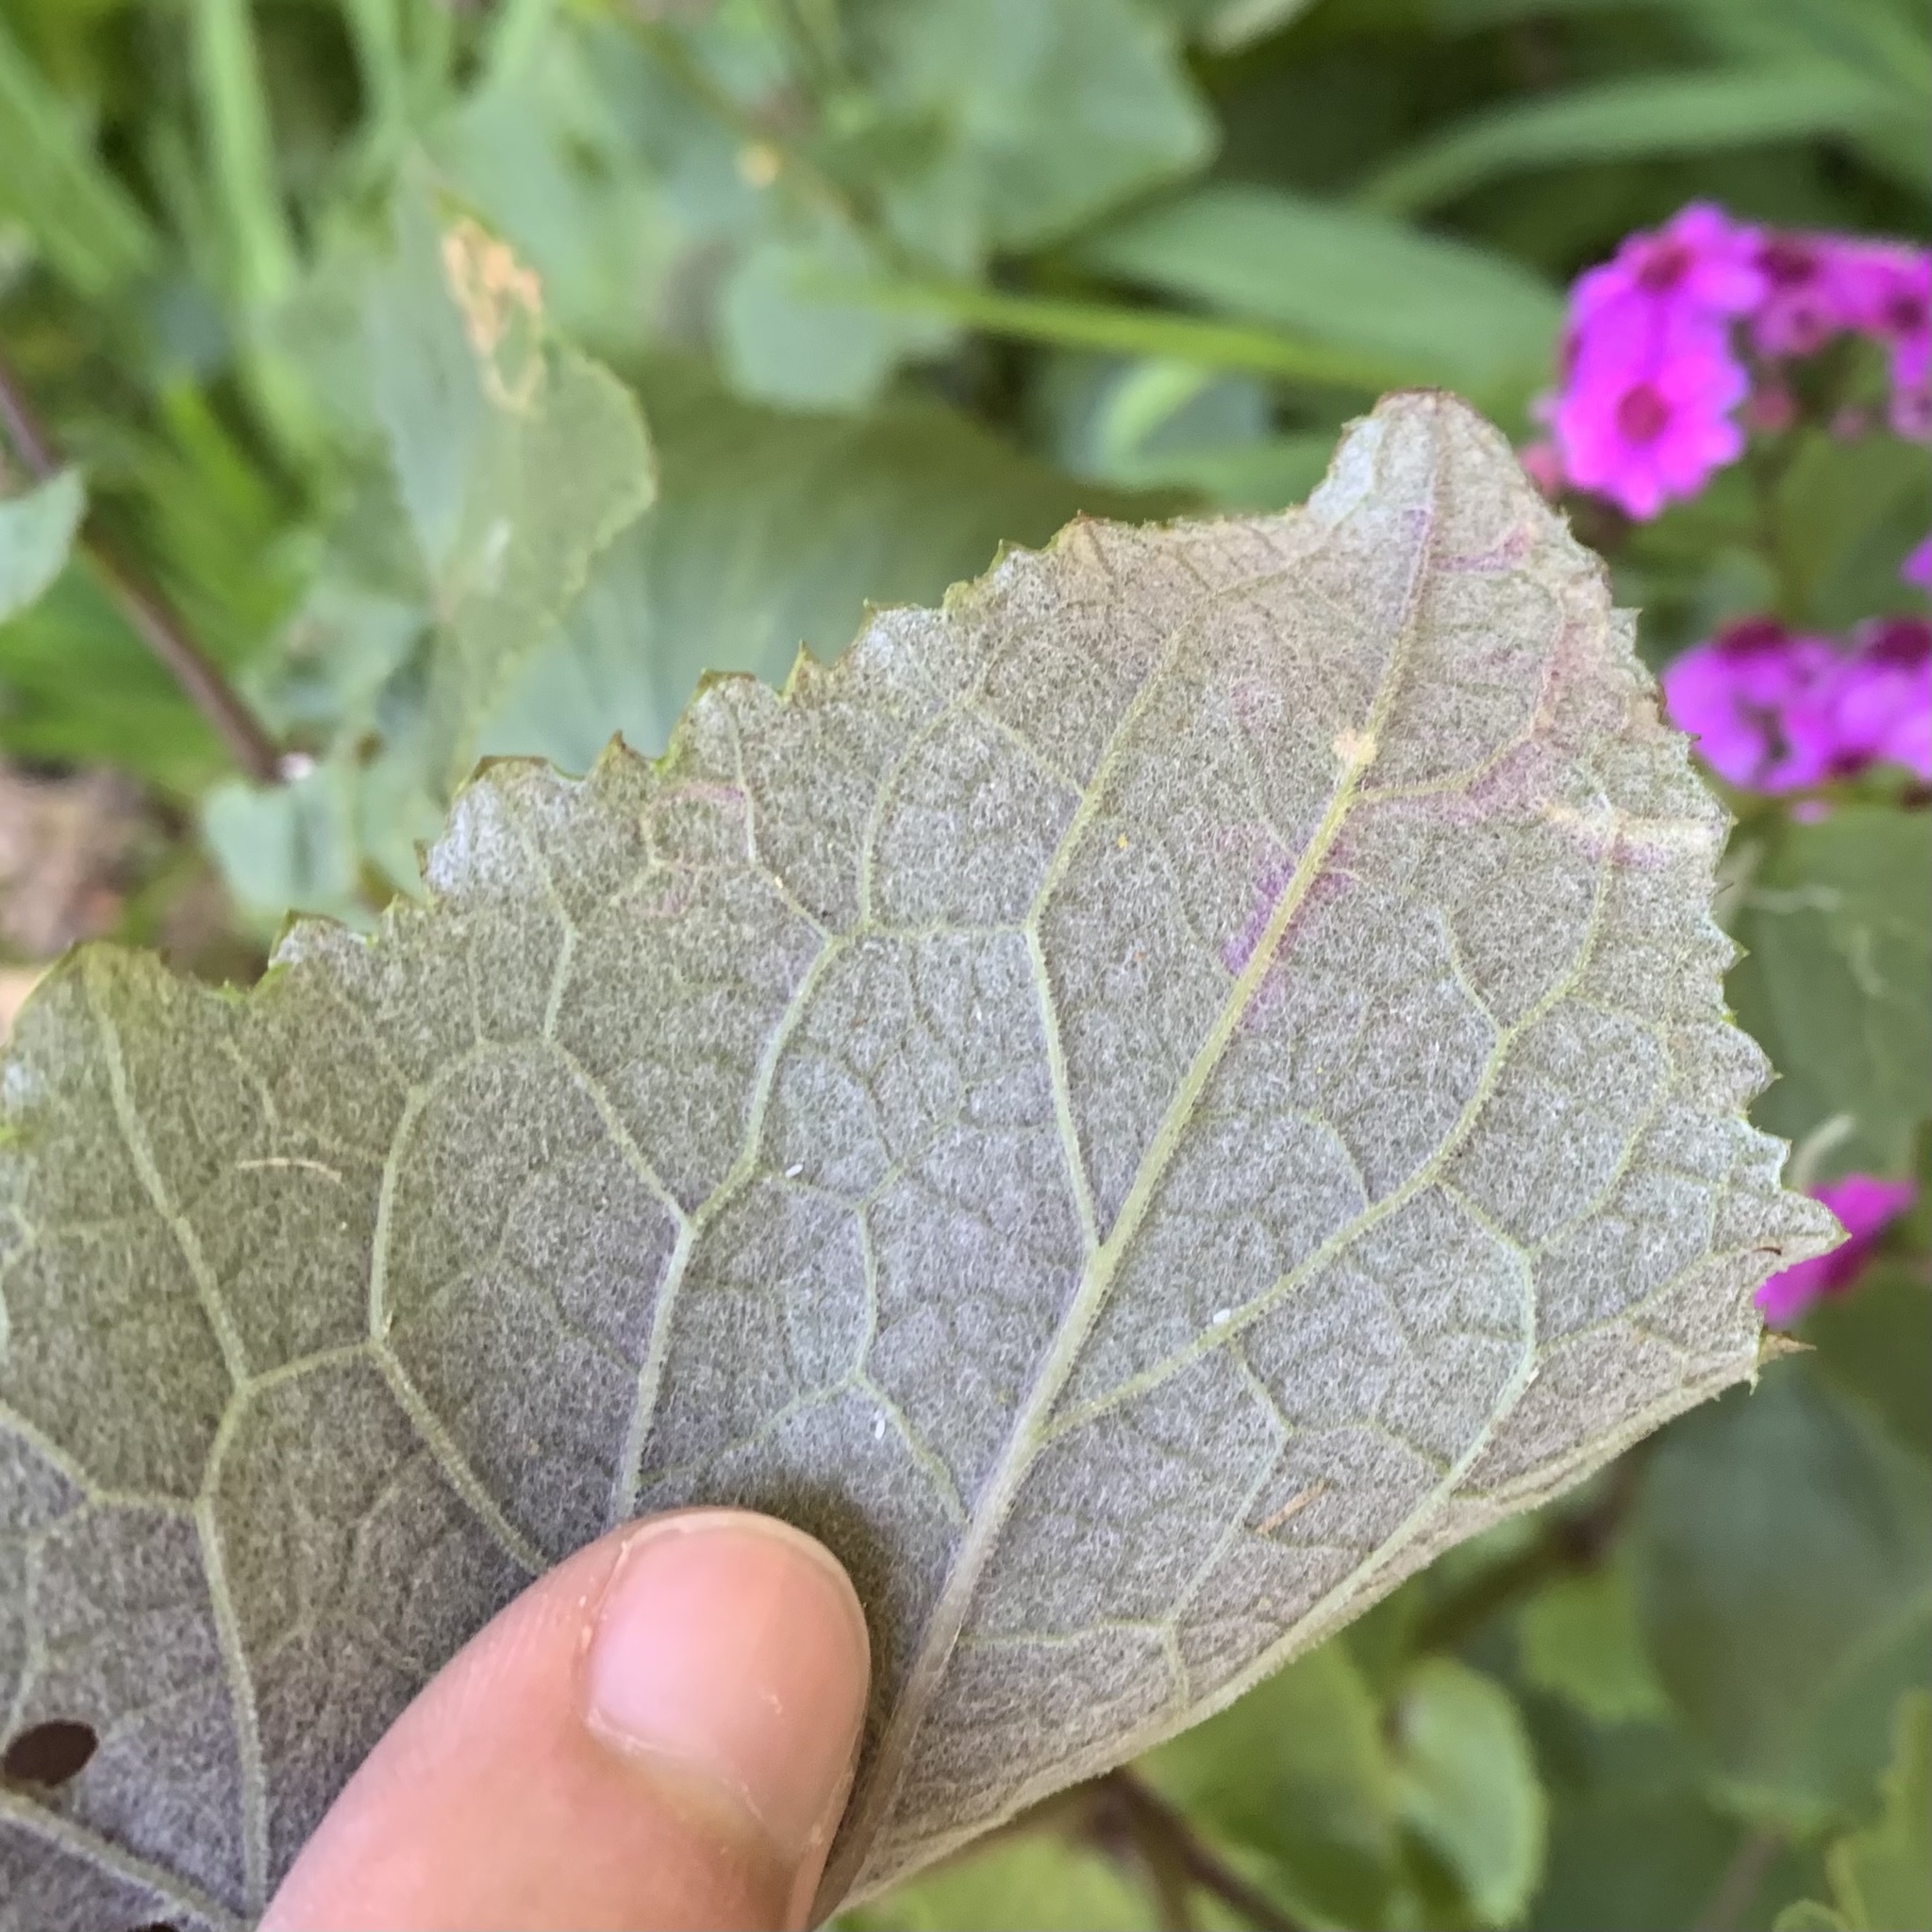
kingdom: Animalia
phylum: Arthropoda
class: Insecta
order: Diptera
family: Agromyzidae
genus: Phytomyza
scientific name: Phytomyza syngenesiae
